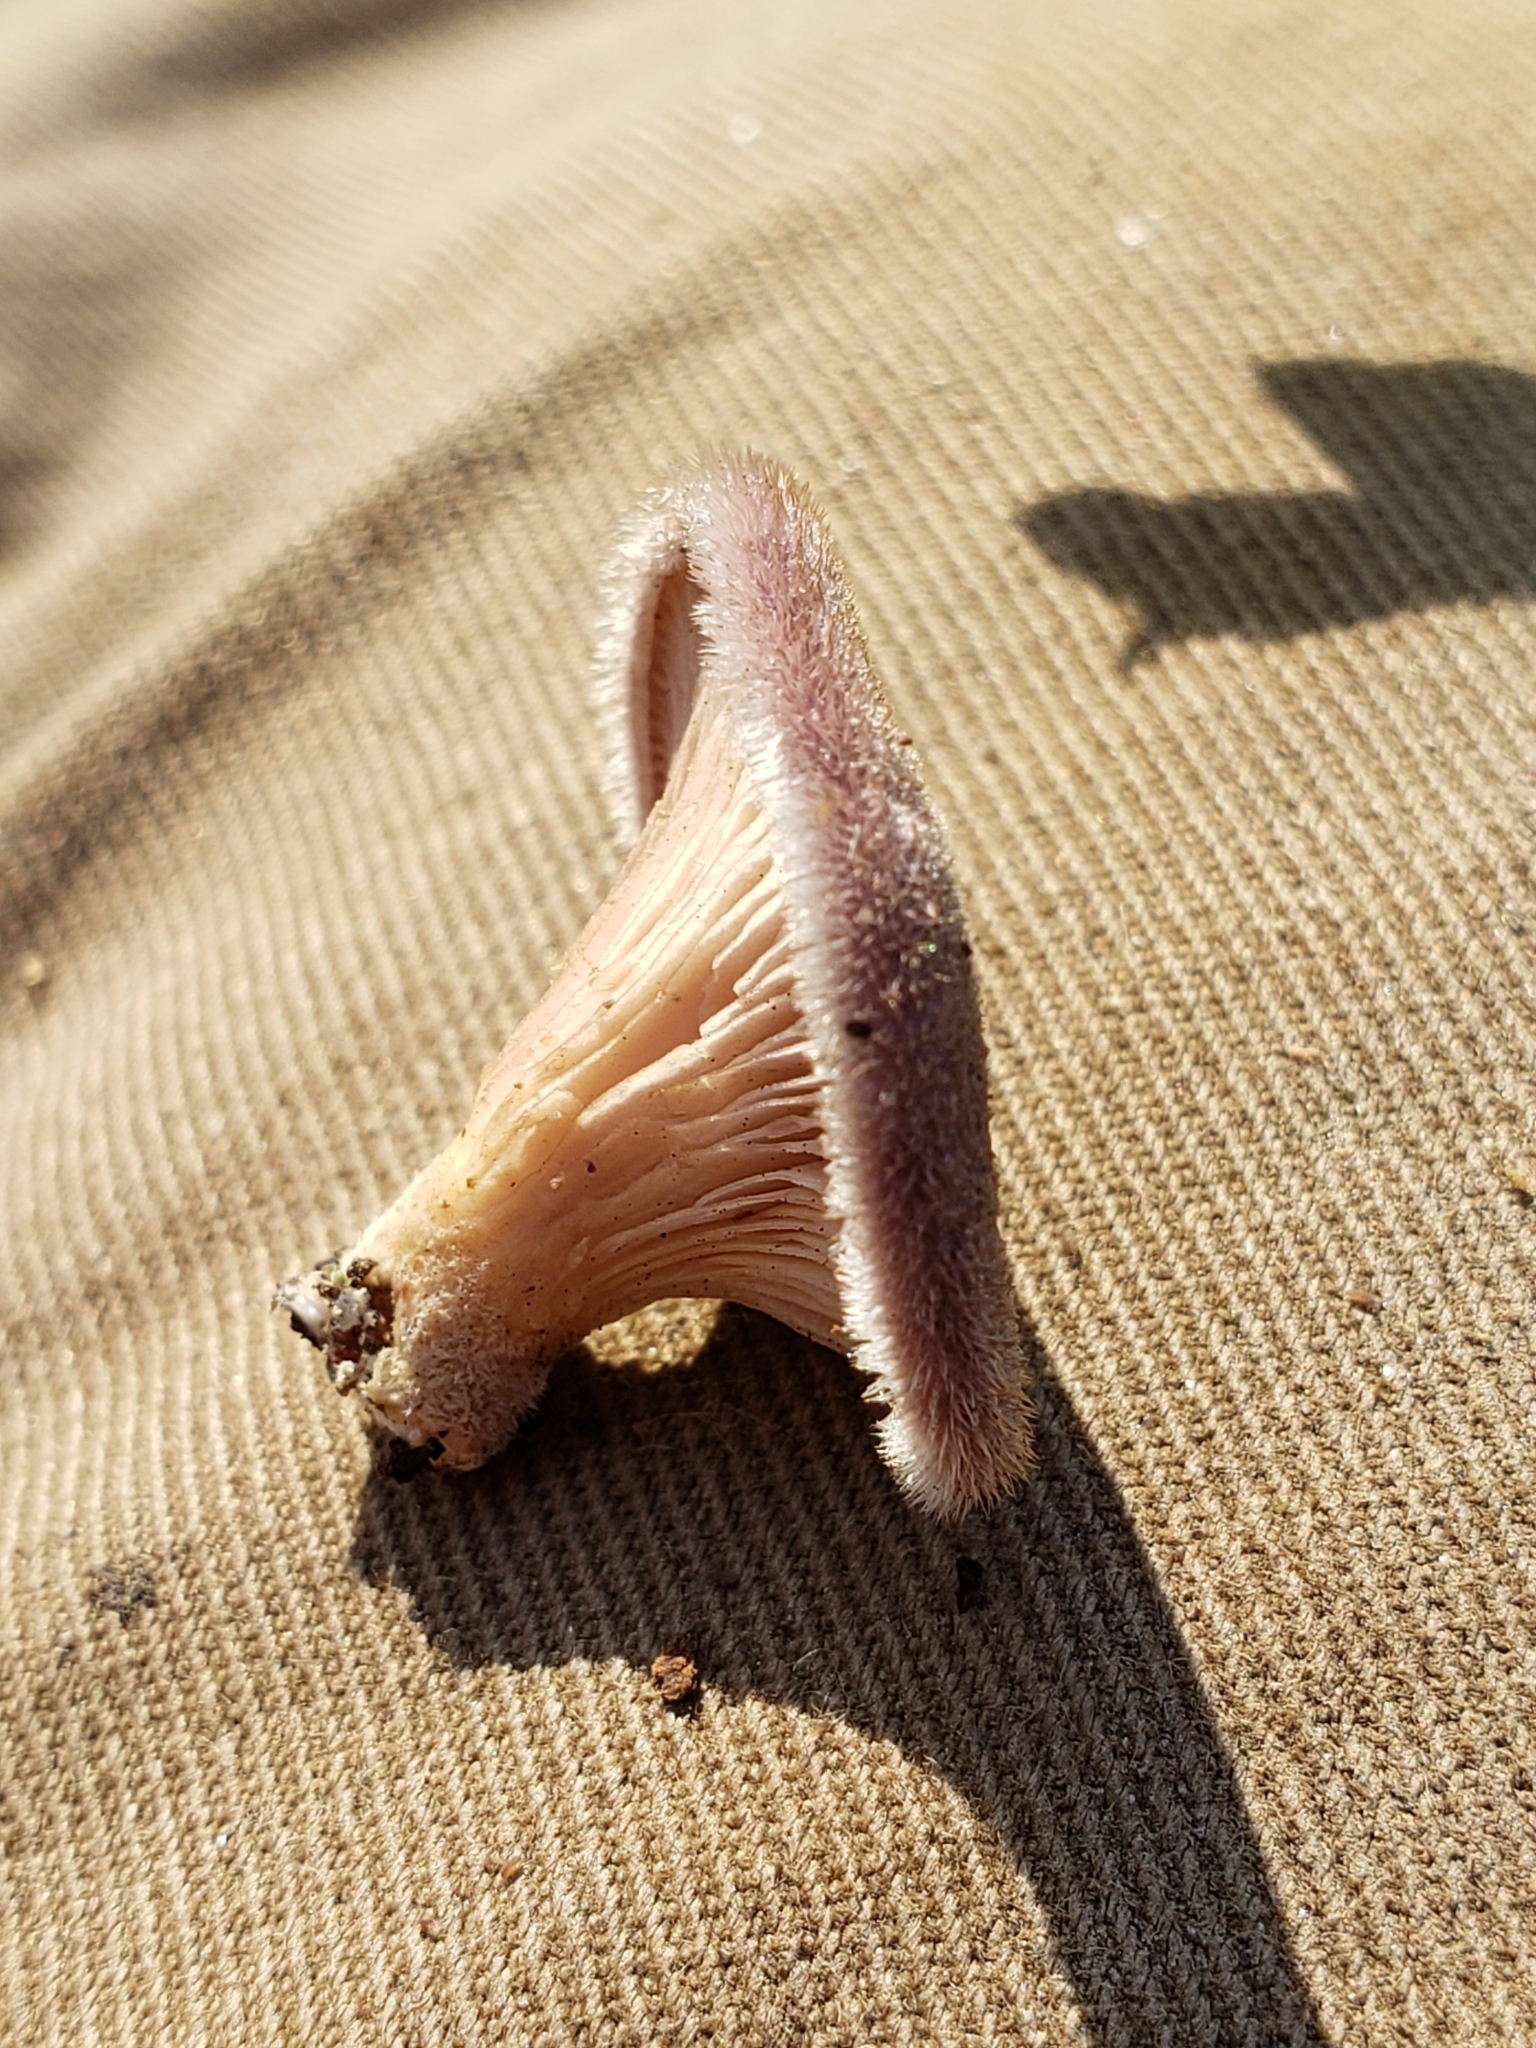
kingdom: Fungi
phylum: Basidiomycota
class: Agaricomycetes
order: Polyporales
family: Panaceae
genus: Panus
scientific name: Panus neostrigosus
